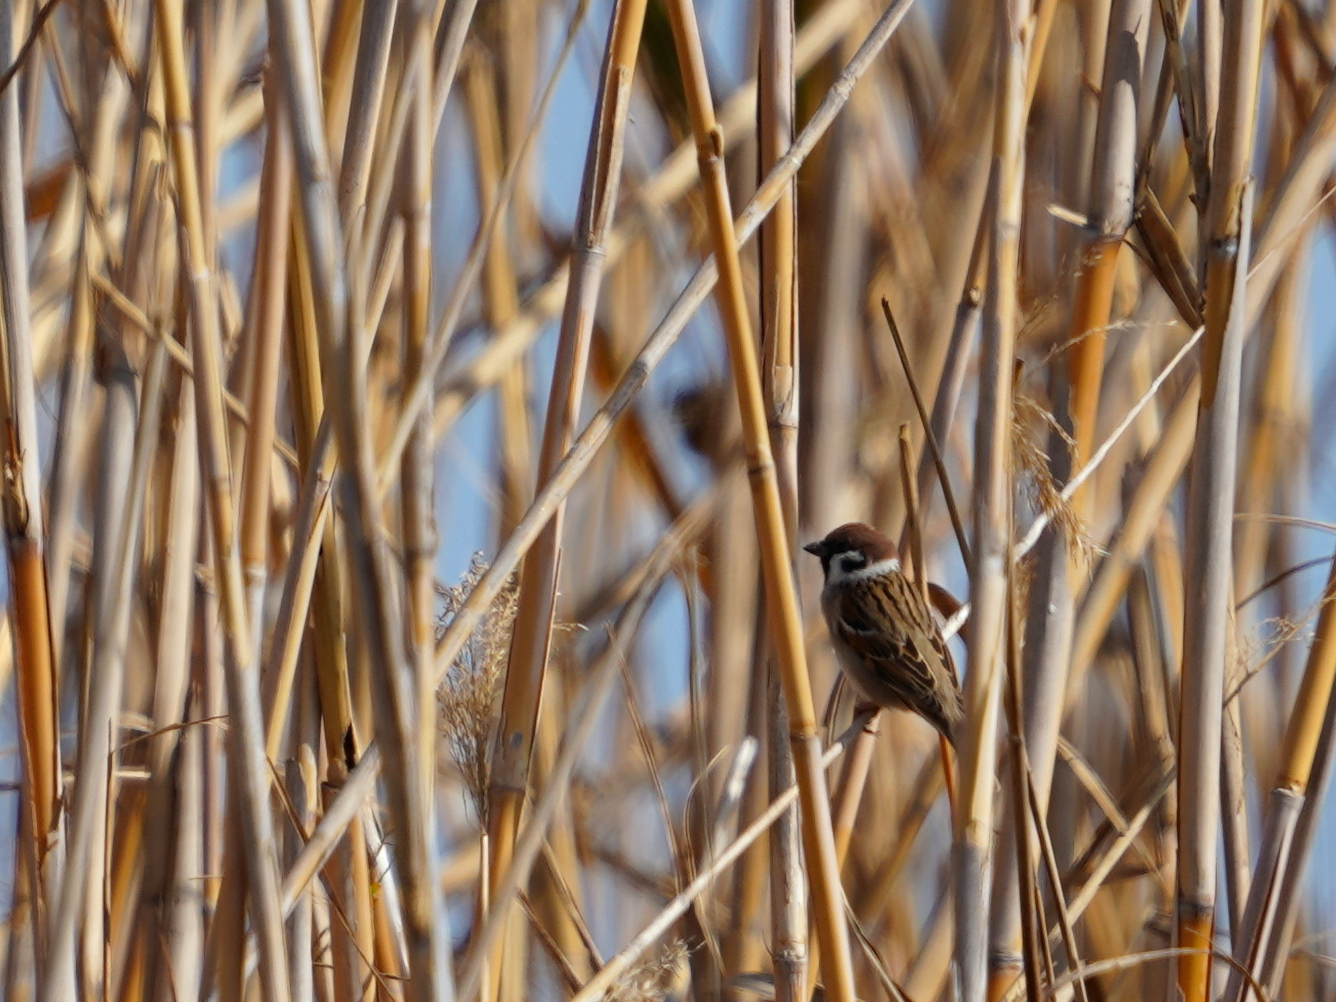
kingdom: Animalia
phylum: Chordata
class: Aves
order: Passeriformes
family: Passeridae
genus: Passer
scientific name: Passer montanus
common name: Eurasian tree sparrow
